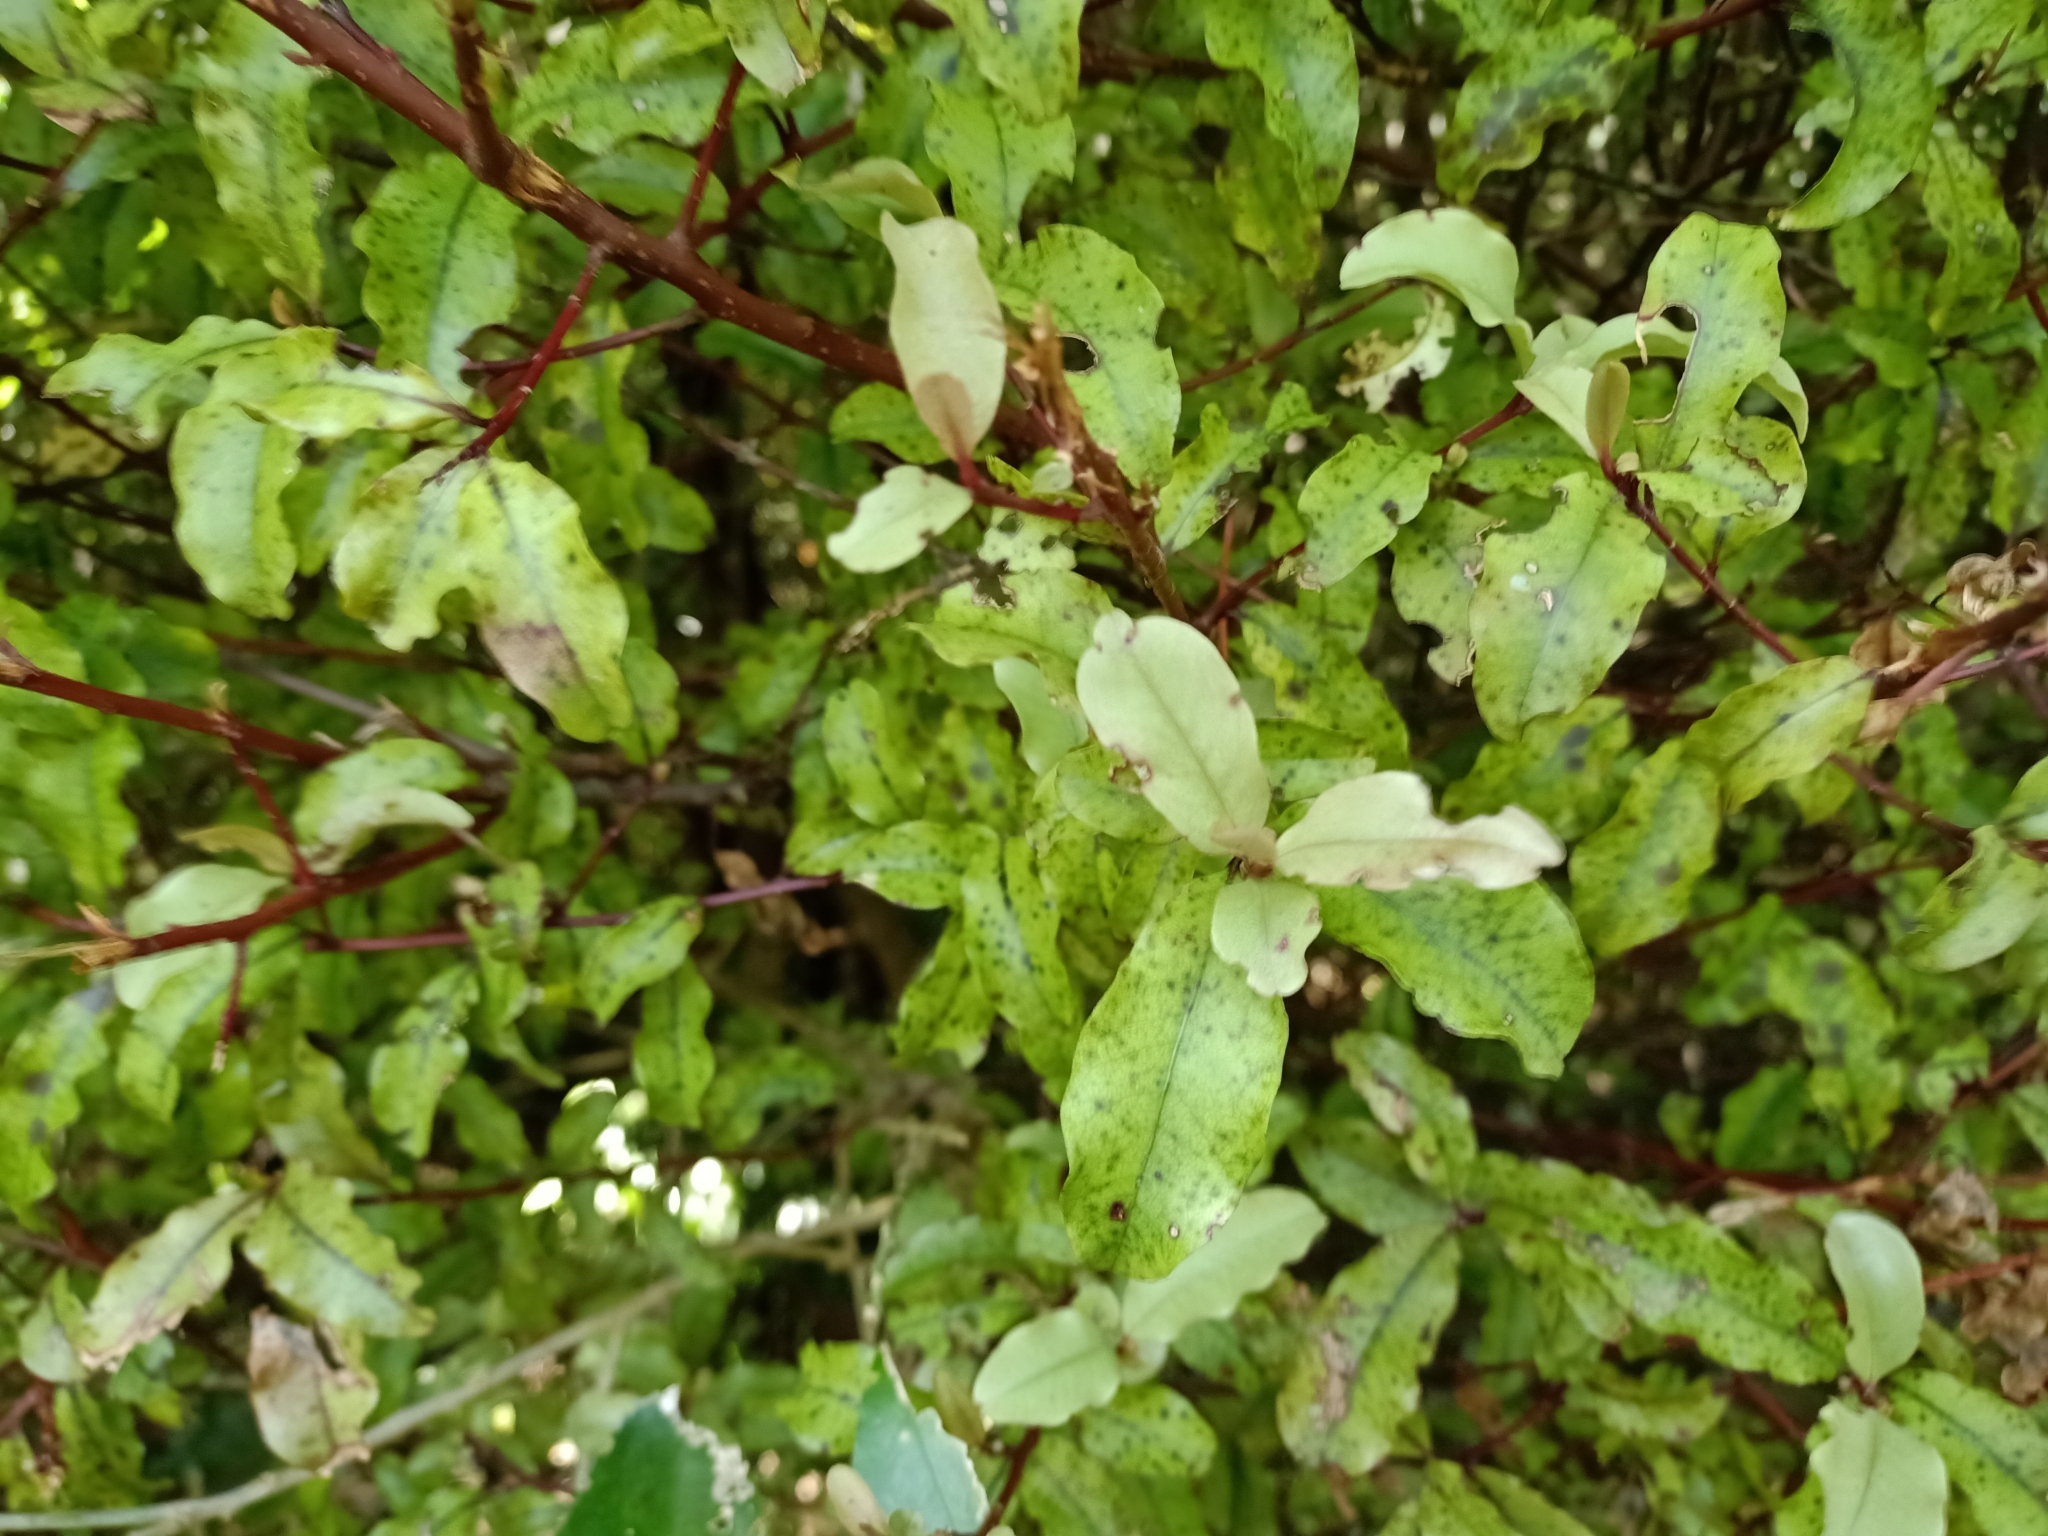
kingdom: Plantae
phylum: Tracheophyta
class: Magnoliopsida
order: Ericales
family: Primulaceae
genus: Myrsine
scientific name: Myrsine australis
